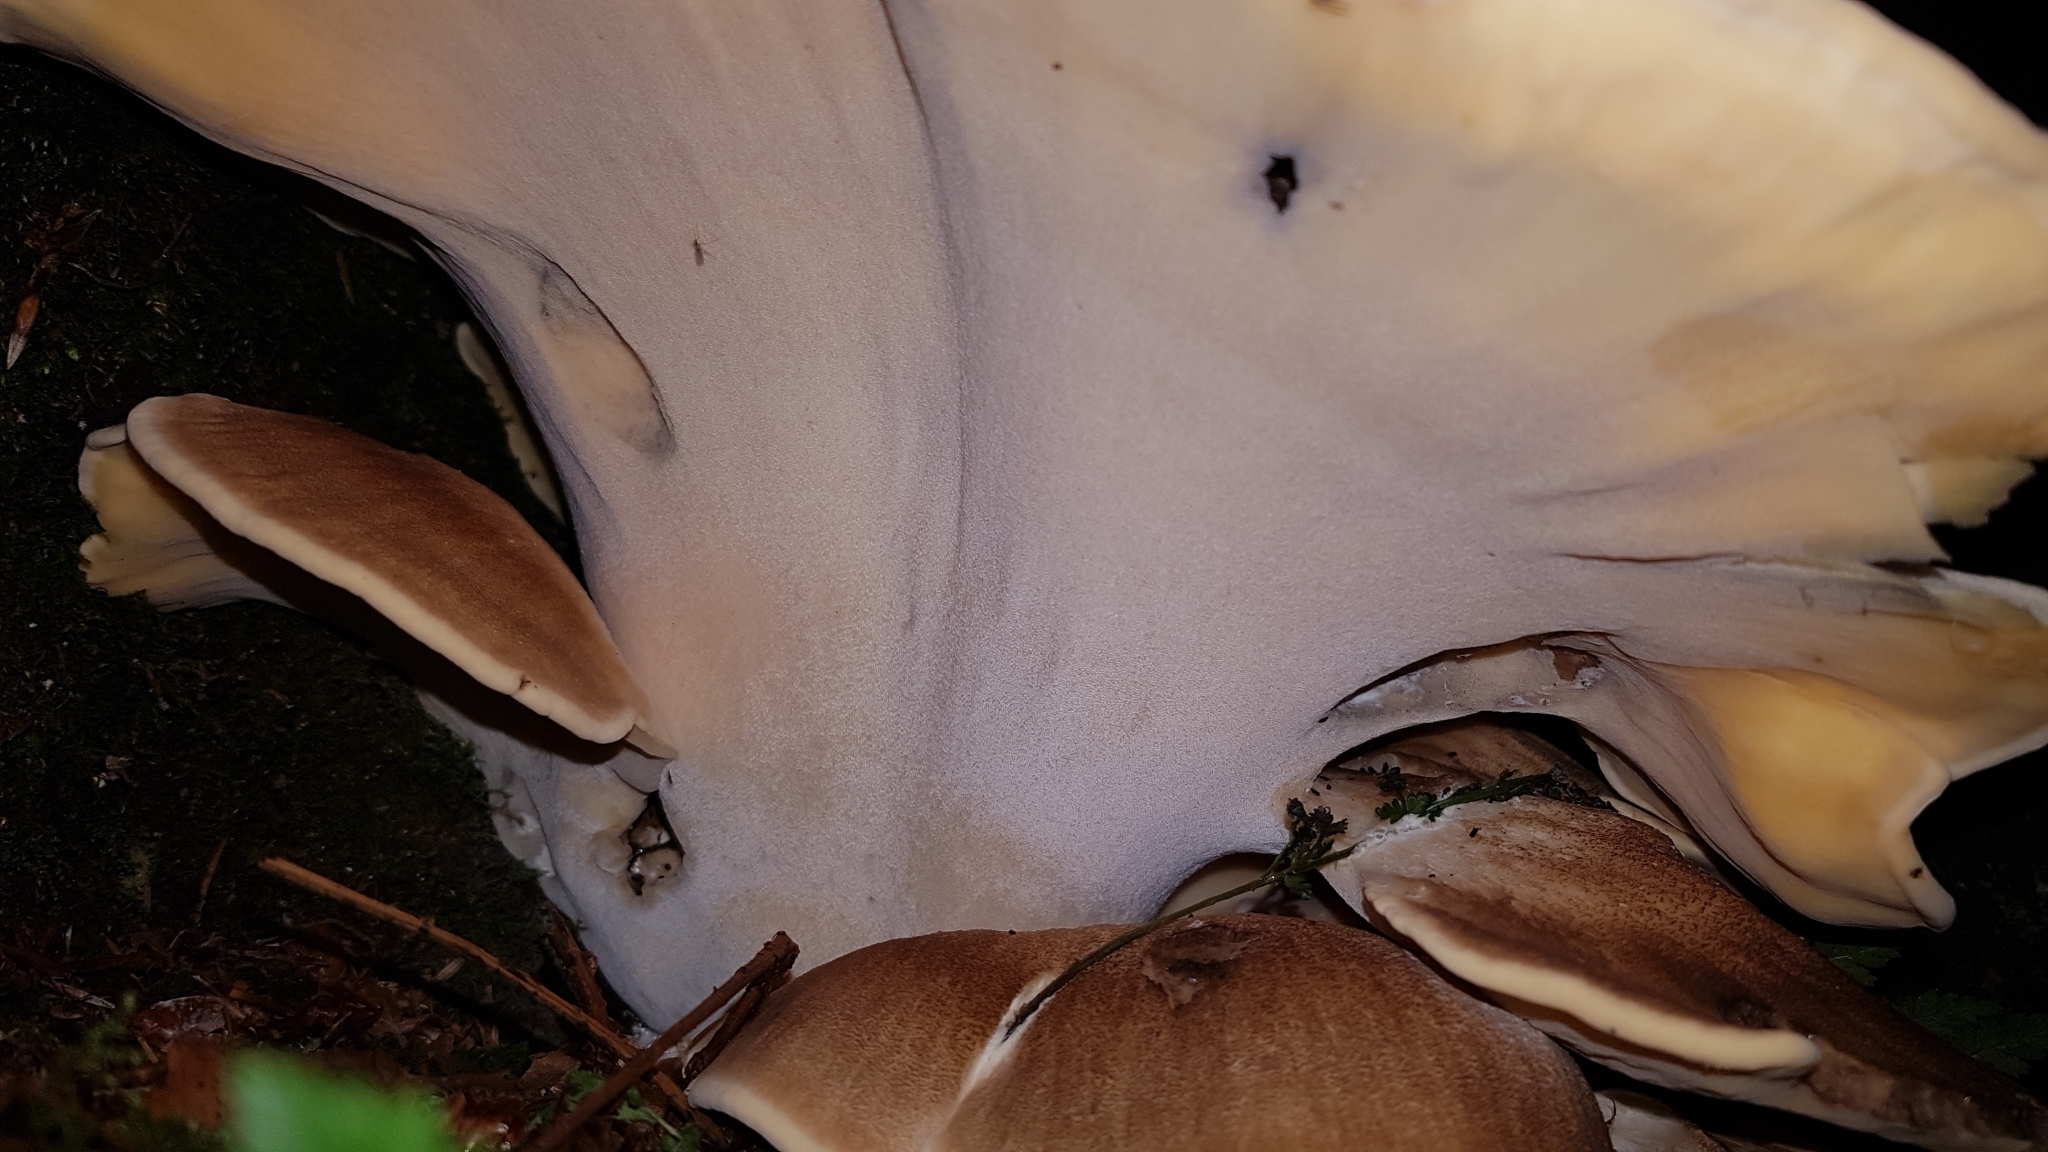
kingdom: Fungi
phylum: Basidiomycota
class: Agaricomycetes
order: Polyporales
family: Meripilaceae
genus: Meripilus
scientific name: Meripilus giganteus
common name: Giant polypore
